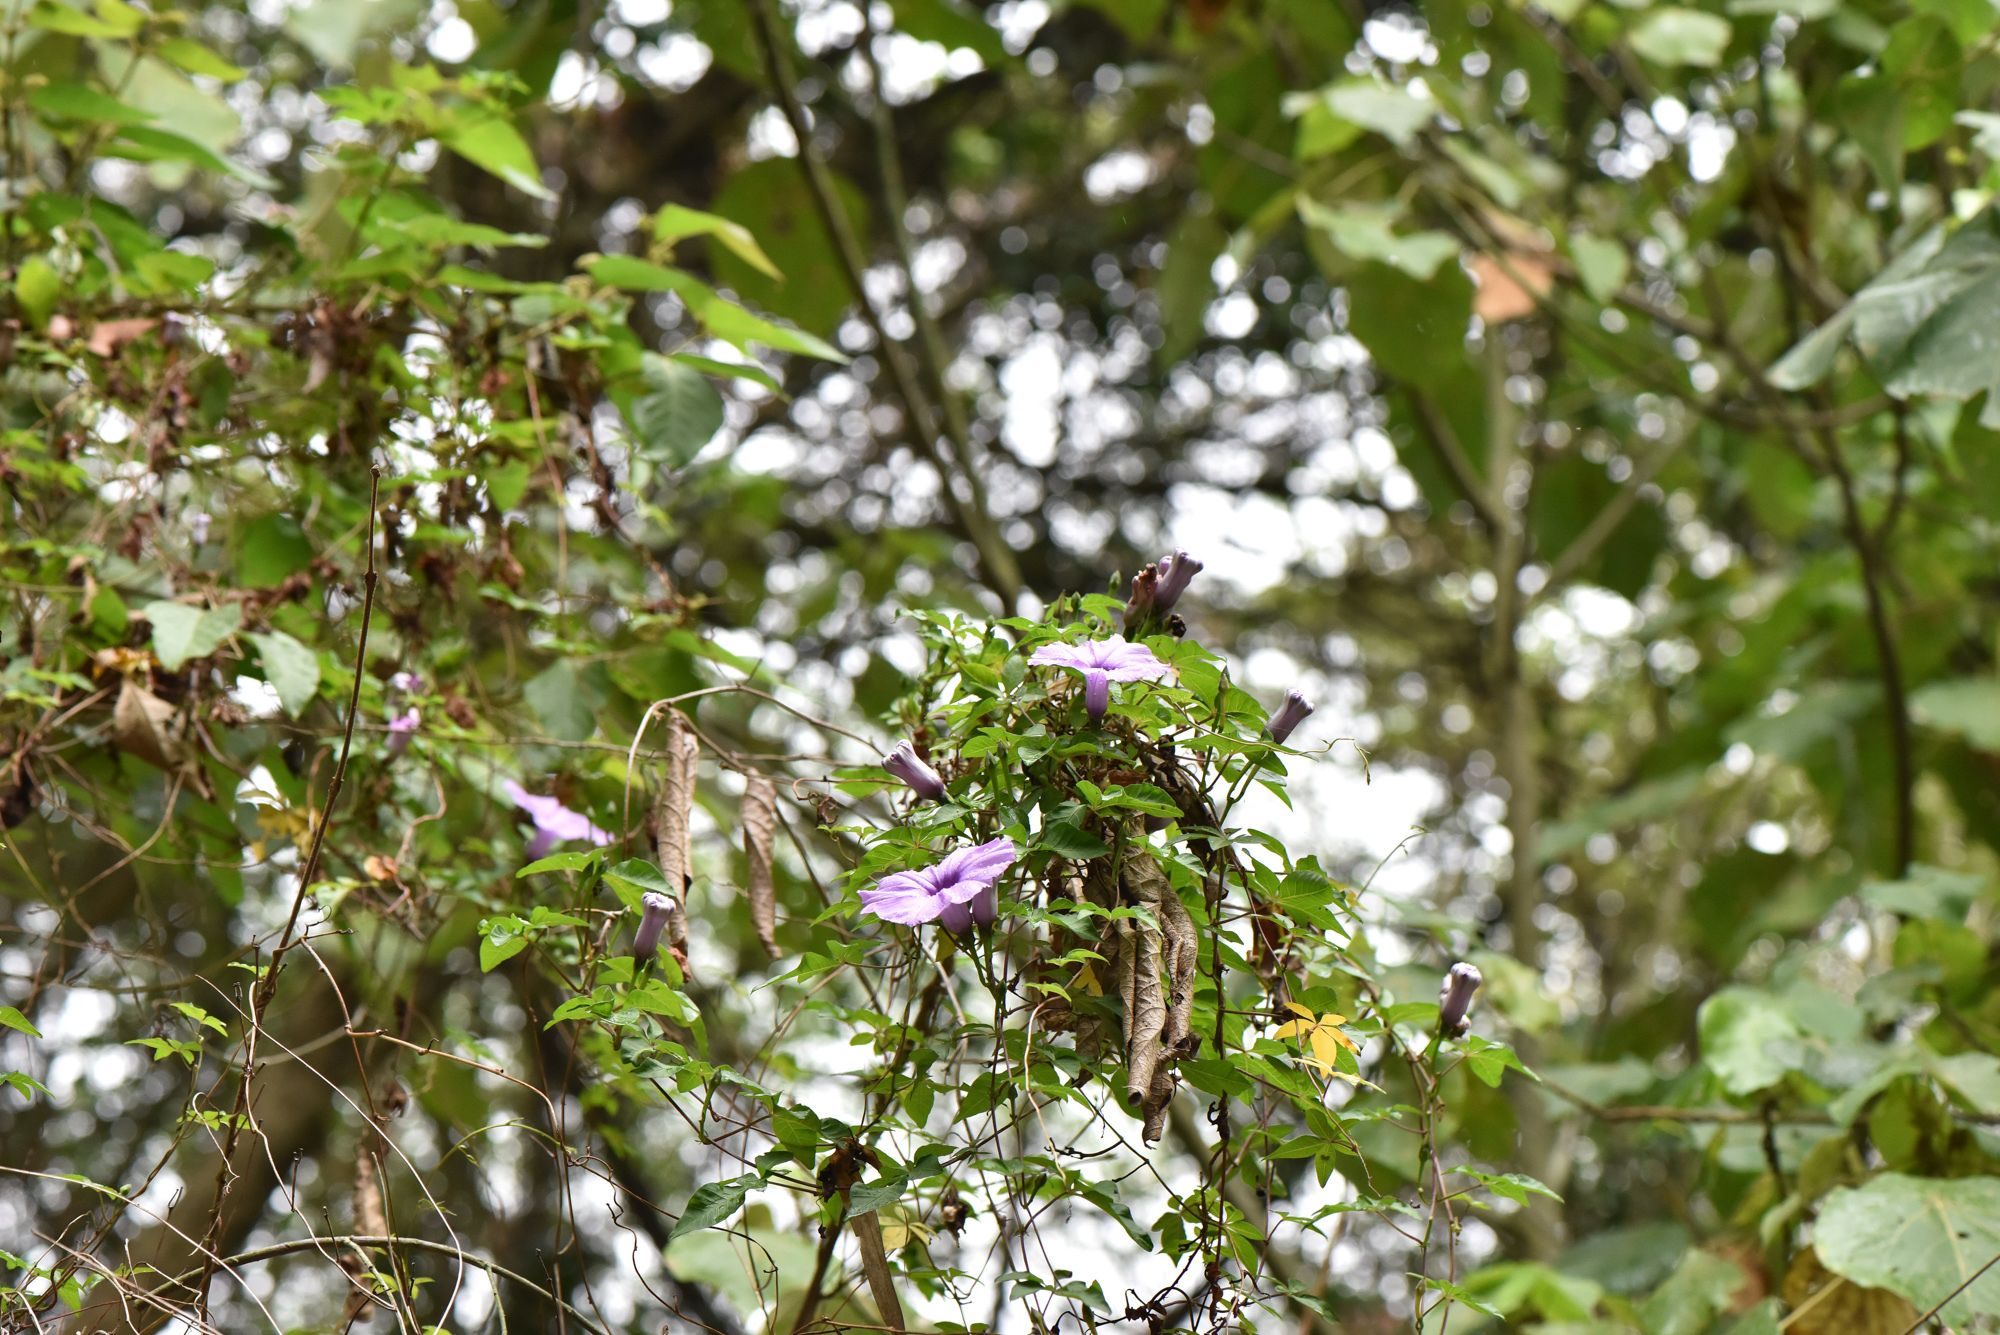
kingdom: Plantae
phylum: Tracheophyta
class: Magnoliopsida
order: Solanales
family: Convolvulaceae
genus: Ipomoea
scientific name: Ipomoea cairica
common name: Mile a minute vine
